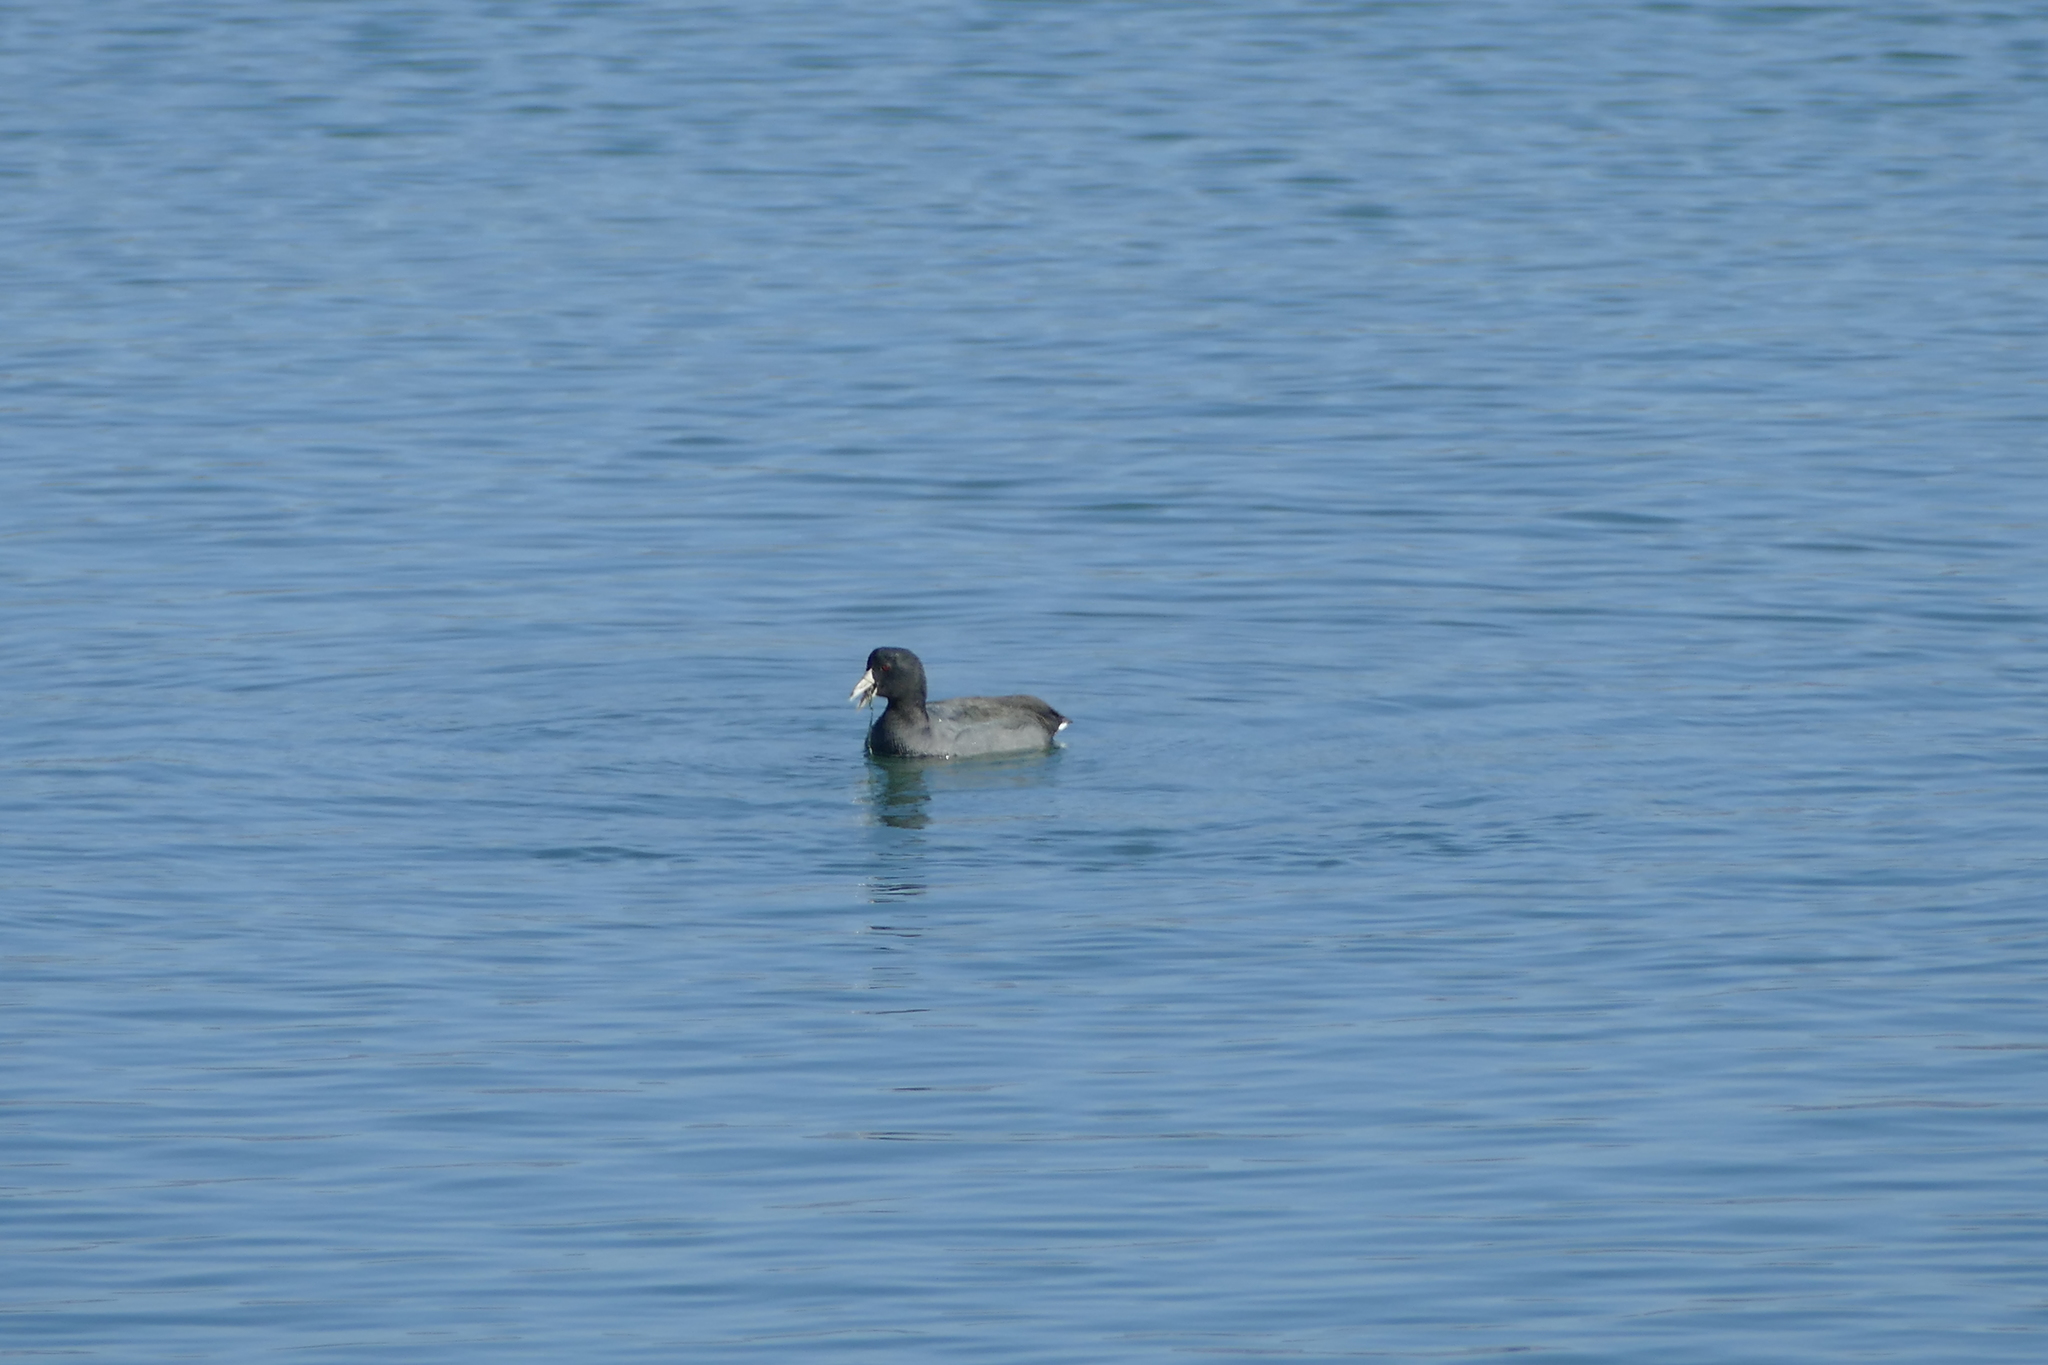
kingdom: Animalia
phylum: Chordata
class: Aves
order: Gruiformes
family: Rallidae
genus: Fulica
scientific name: Fulica americana
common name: American coot
